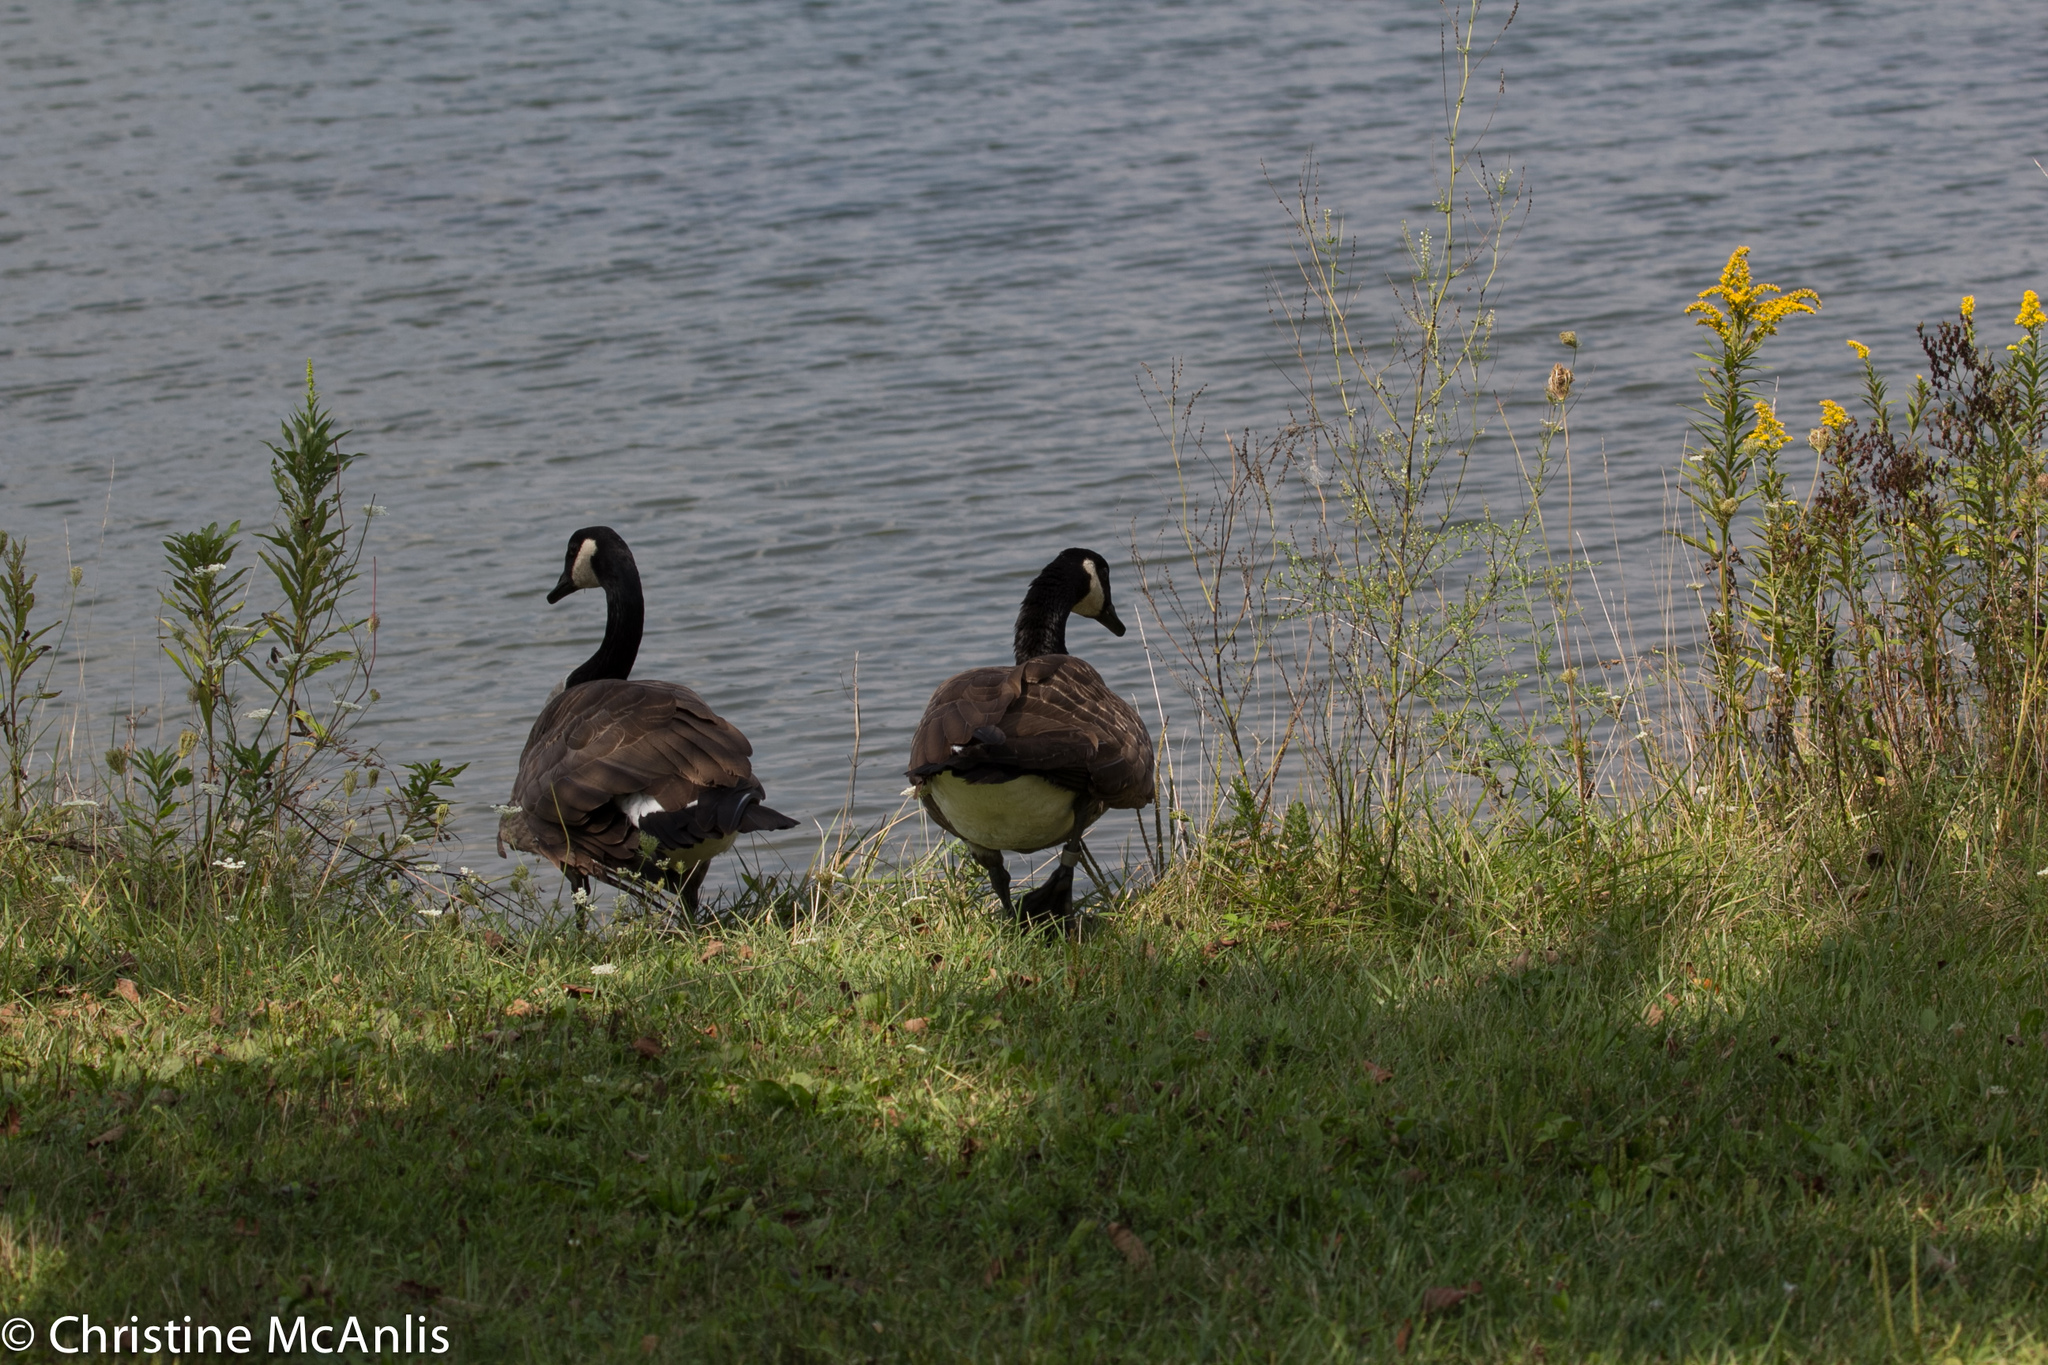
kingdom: Animalia
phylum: Chordata
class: Aves
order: Anseriformes
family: Anatidae
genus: Branta
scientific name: Branta canadensis
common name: Canada goose
